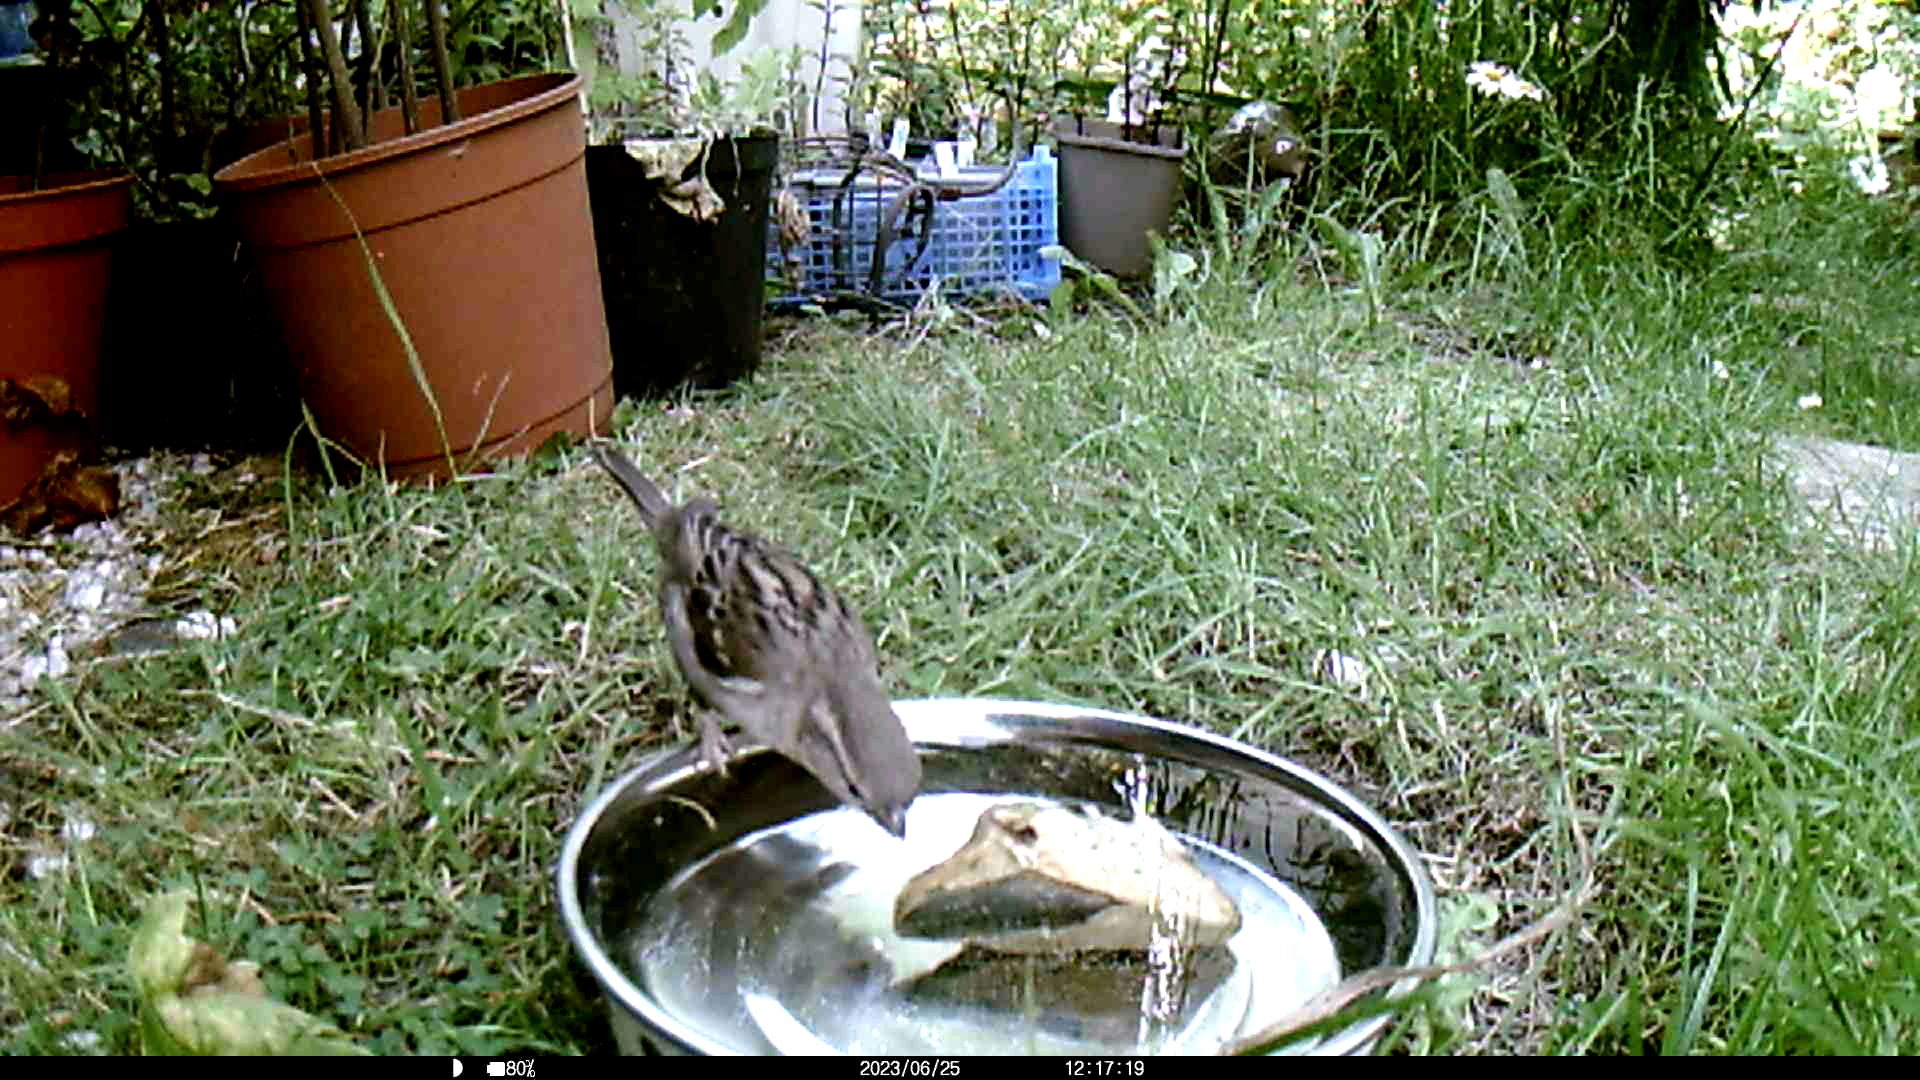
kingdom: Animalia
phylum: Chordata
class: Aves
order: Passeriformes
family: Passeridae
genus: Passer
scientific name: Passer domesticus
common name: House sparrow
